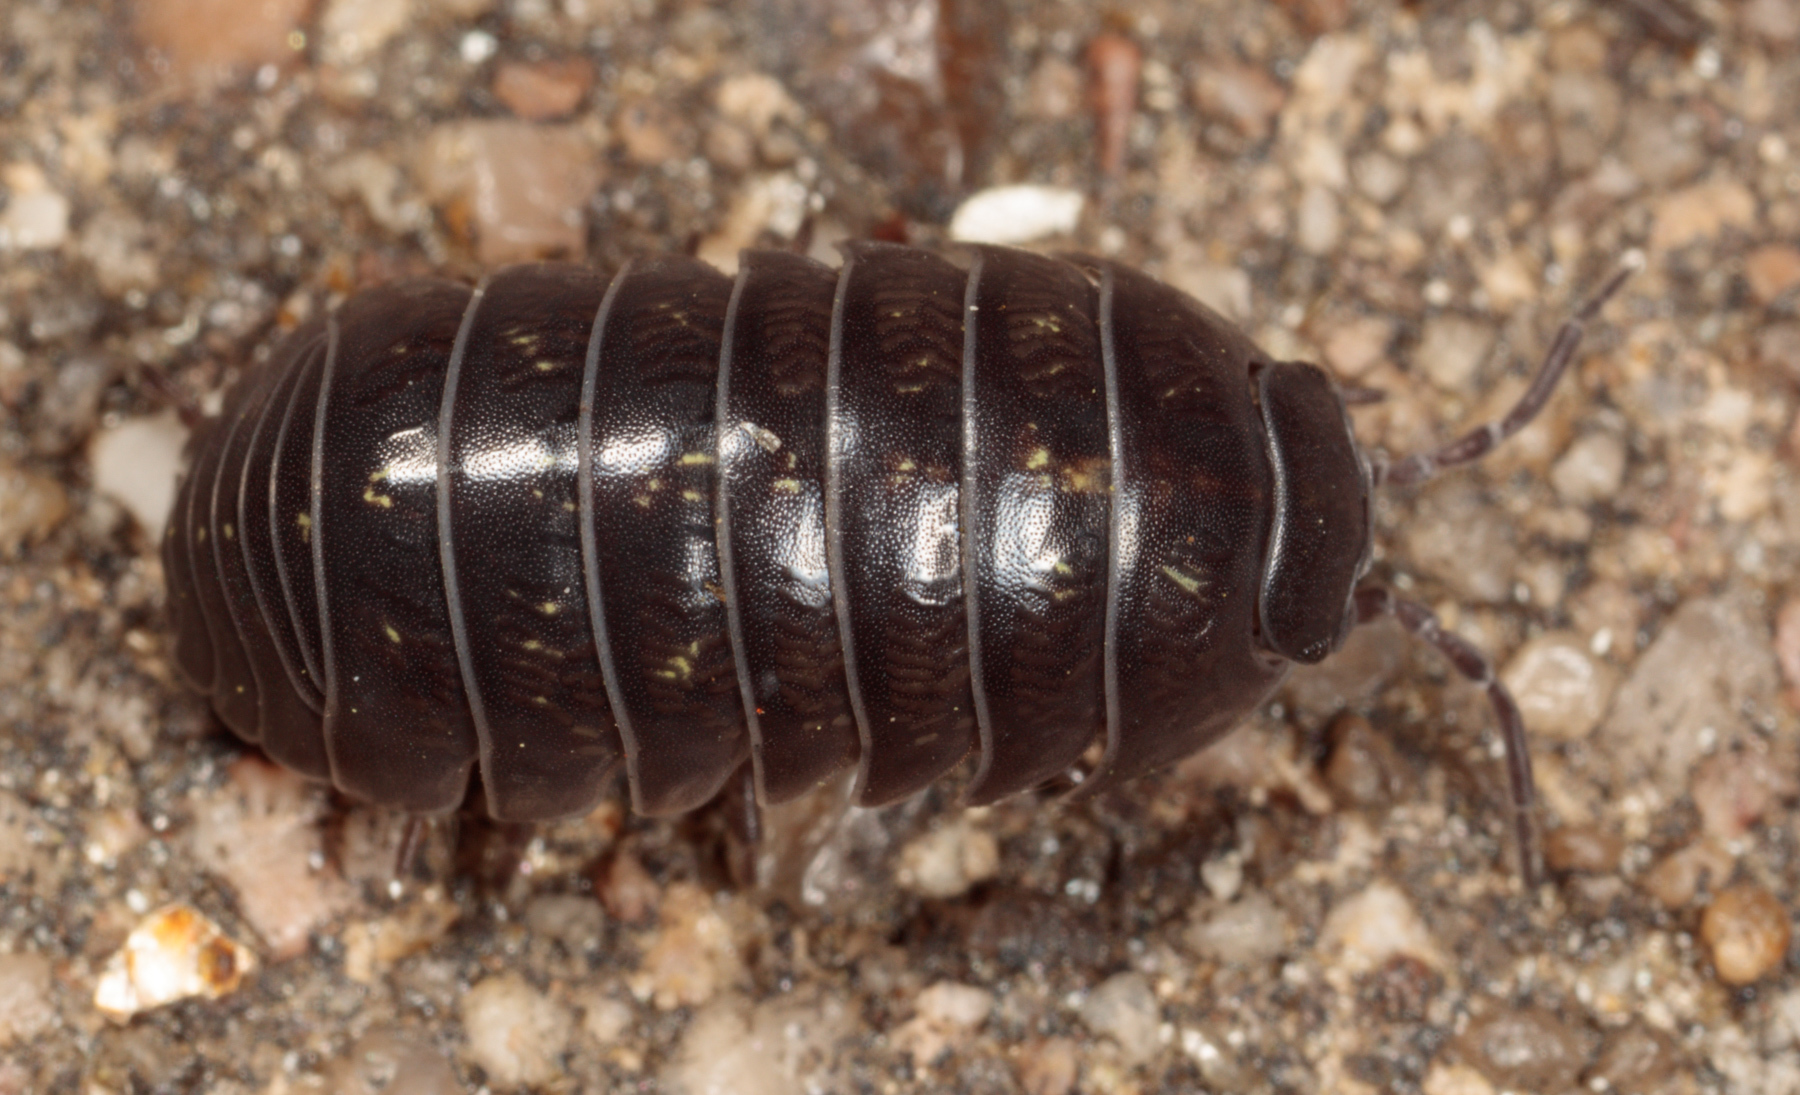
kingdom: Animalia
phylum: Arthropoda
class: Malacostraca
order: Isopoda
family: Armadillidiidae
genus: Armadillidium
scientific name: Armadillidium vulgare
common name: Common pill woodlouse
